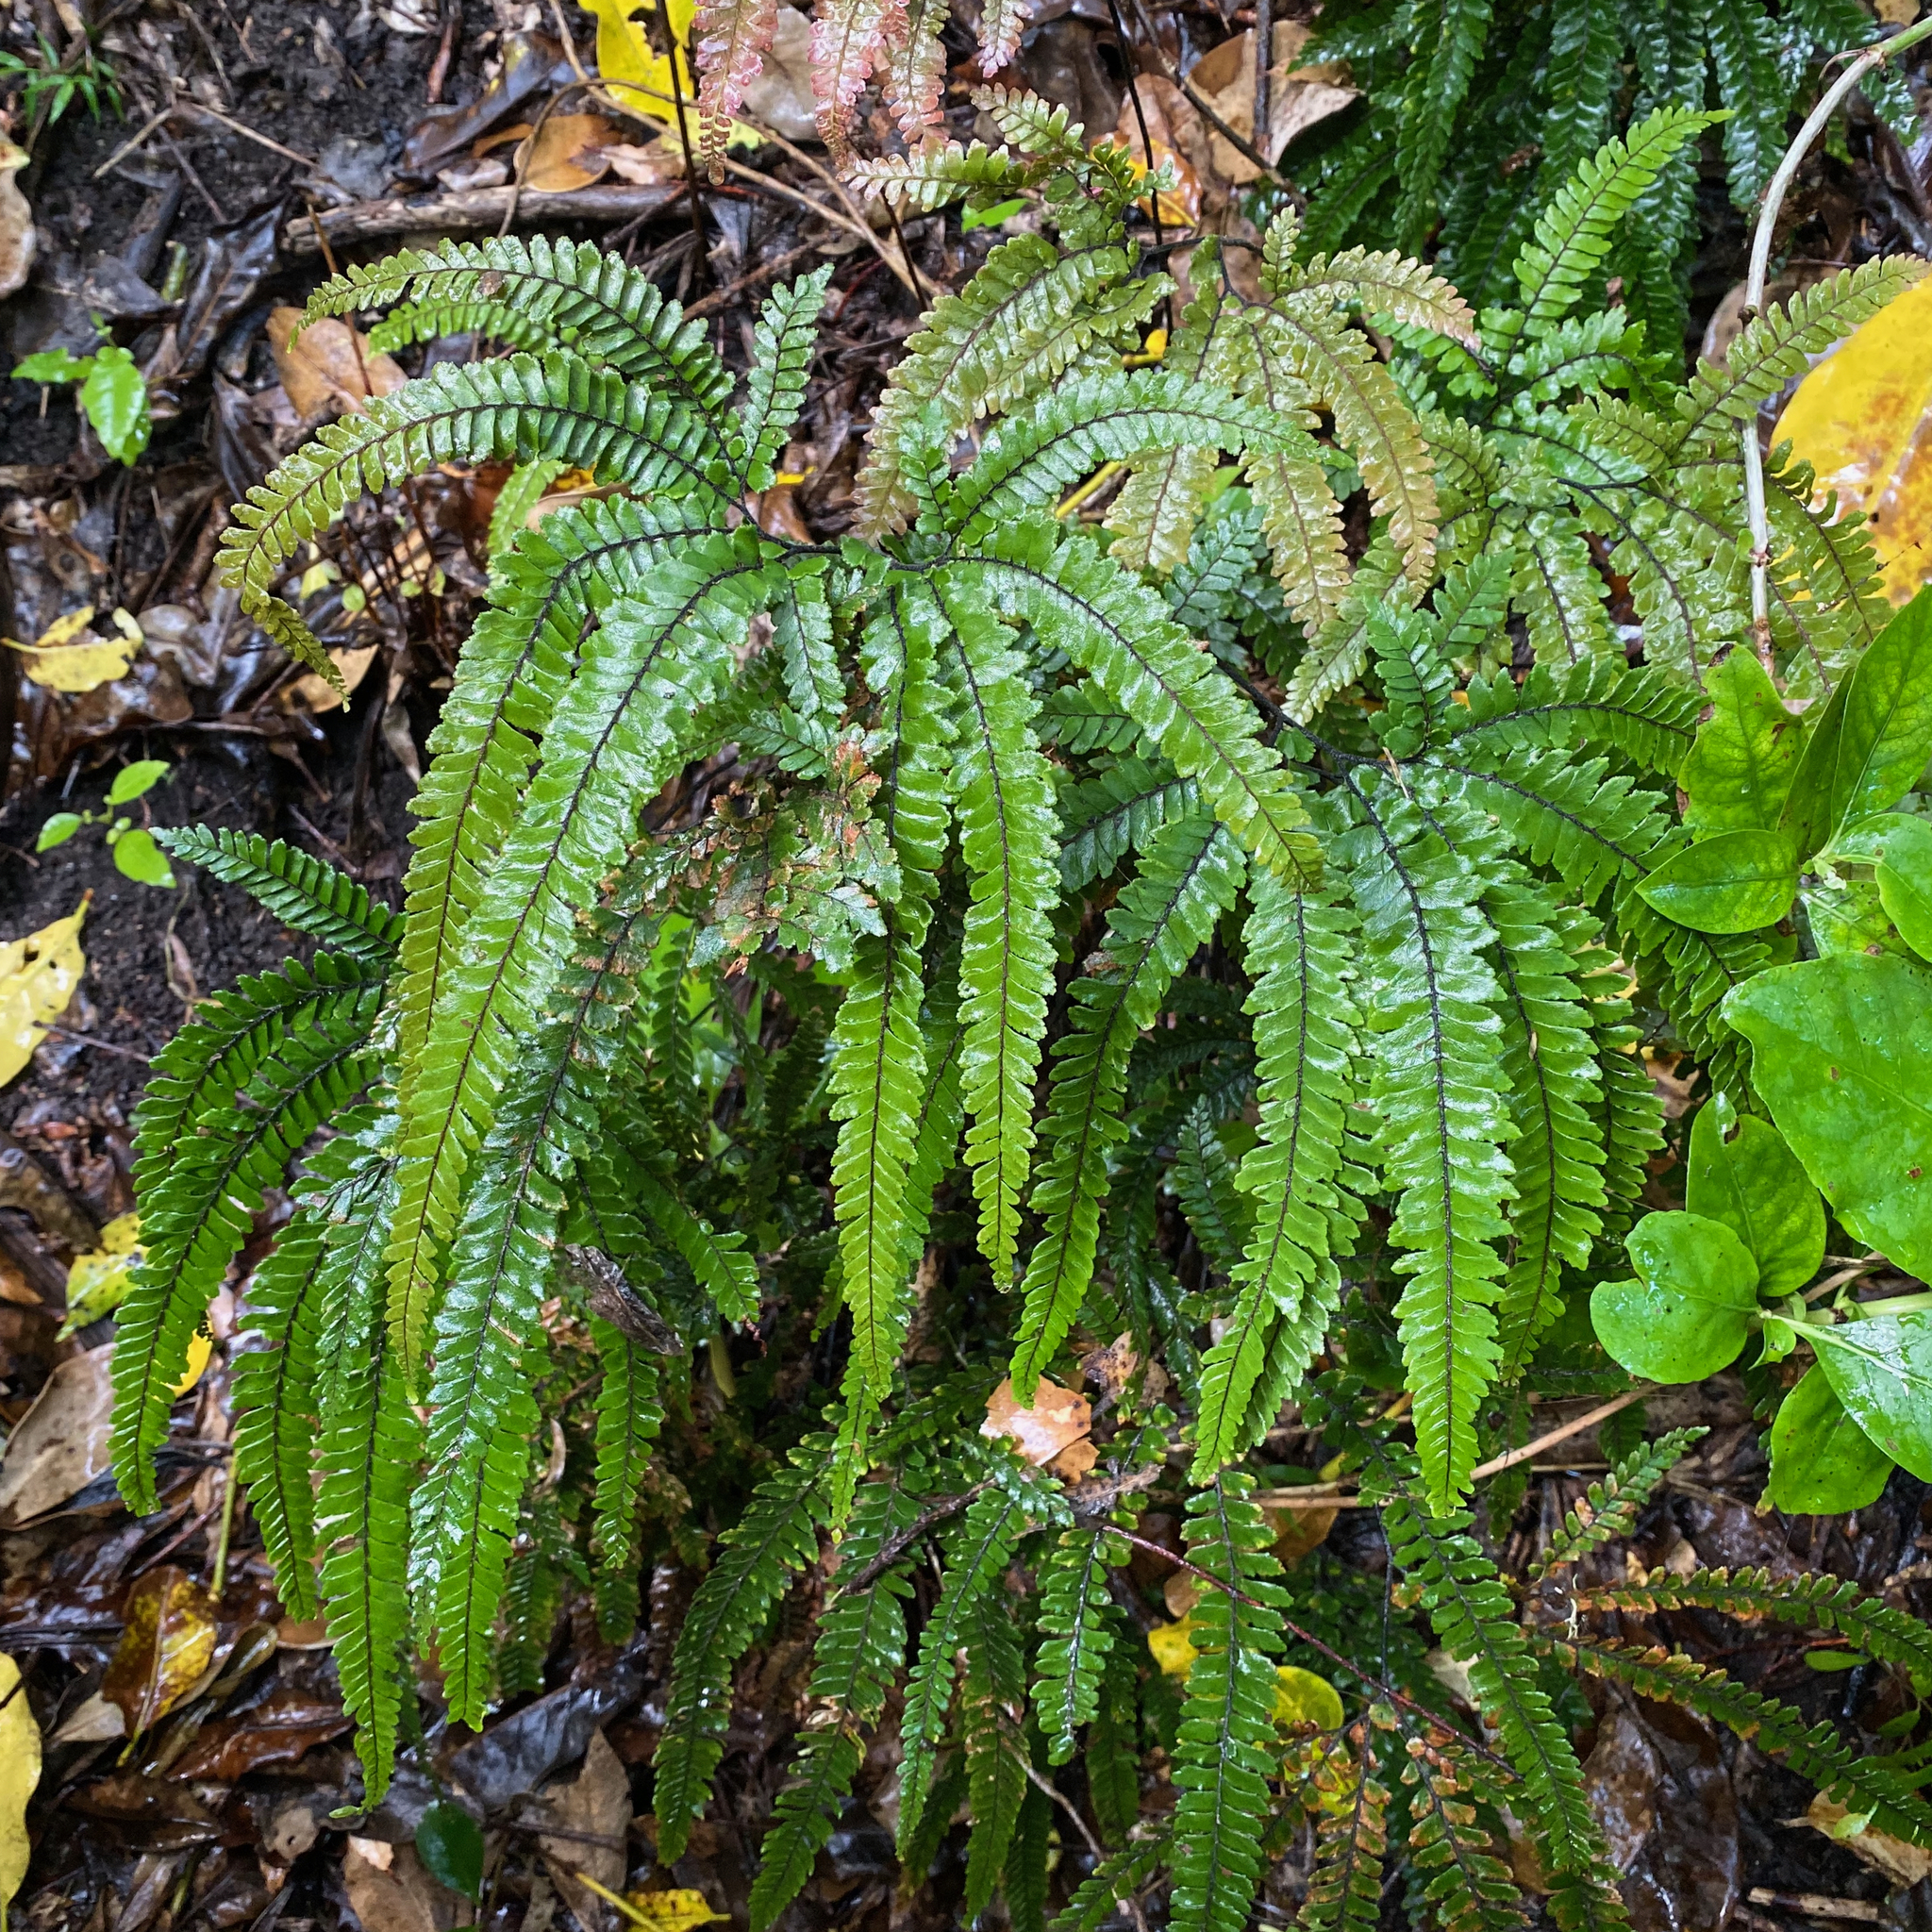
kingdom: Plantae
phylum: Tracheophyta
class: Polypodiopsida
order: Polypodiales
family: Pteridaceae
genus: Adiantum
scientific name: Adiantum hispidulum
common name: Rough maidenhair
